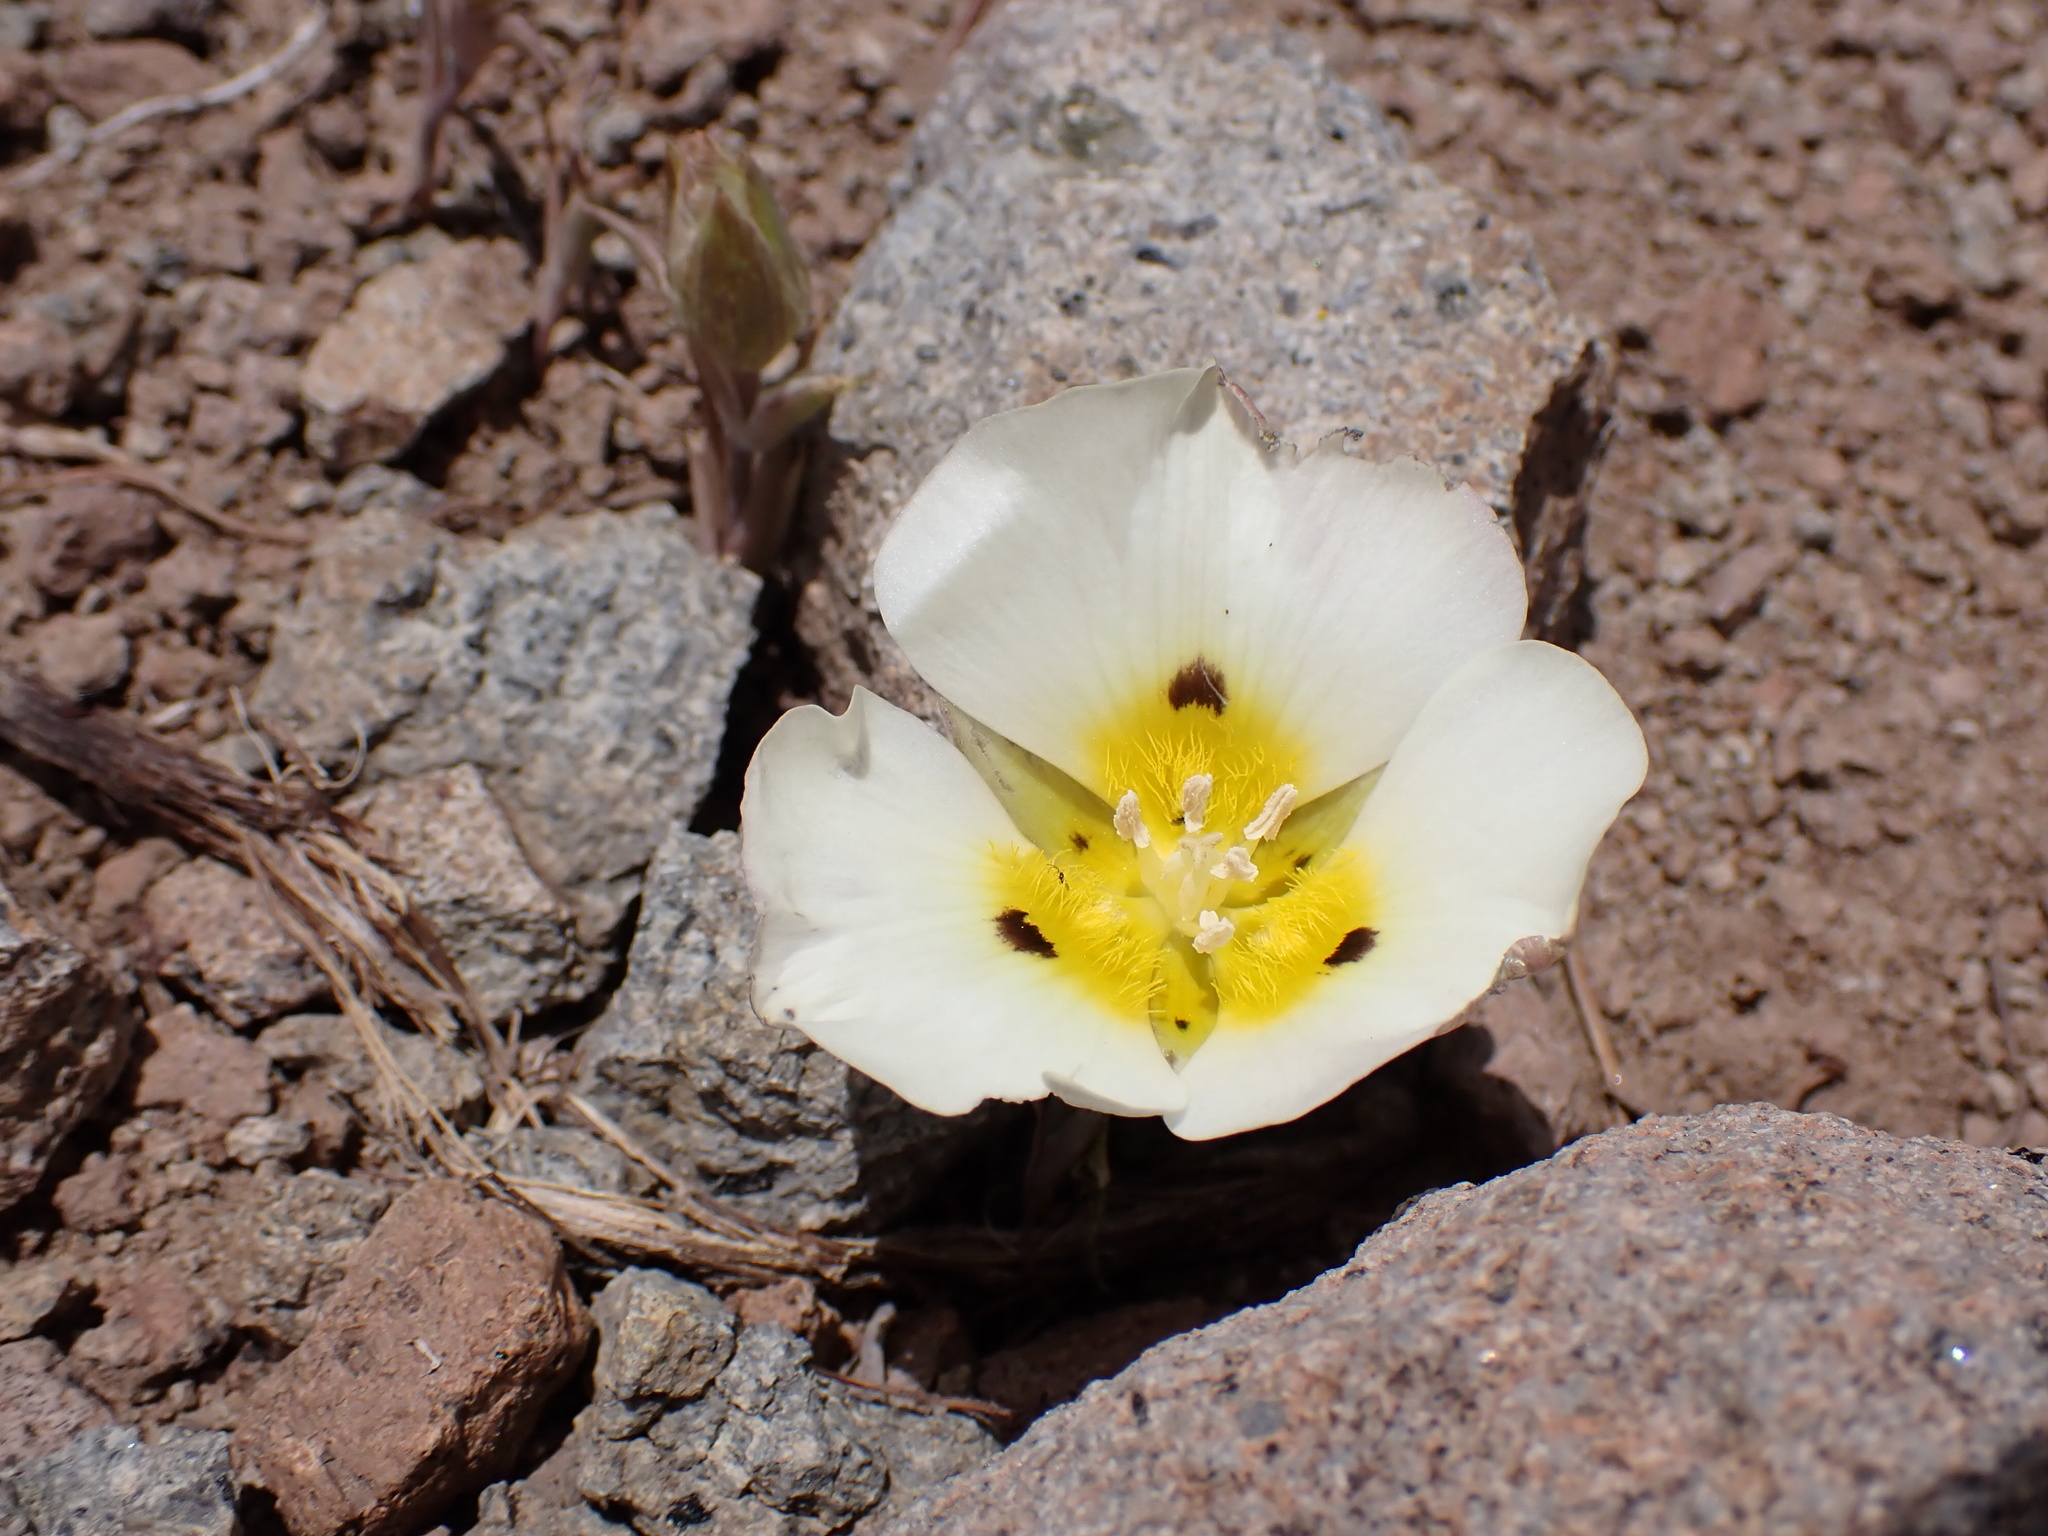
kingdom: Plantae
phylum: Tracheophyta
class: Liliopsida
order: Liliales
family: Liliaceae
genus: Calochortus
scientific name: Calochortus leichtlinii
